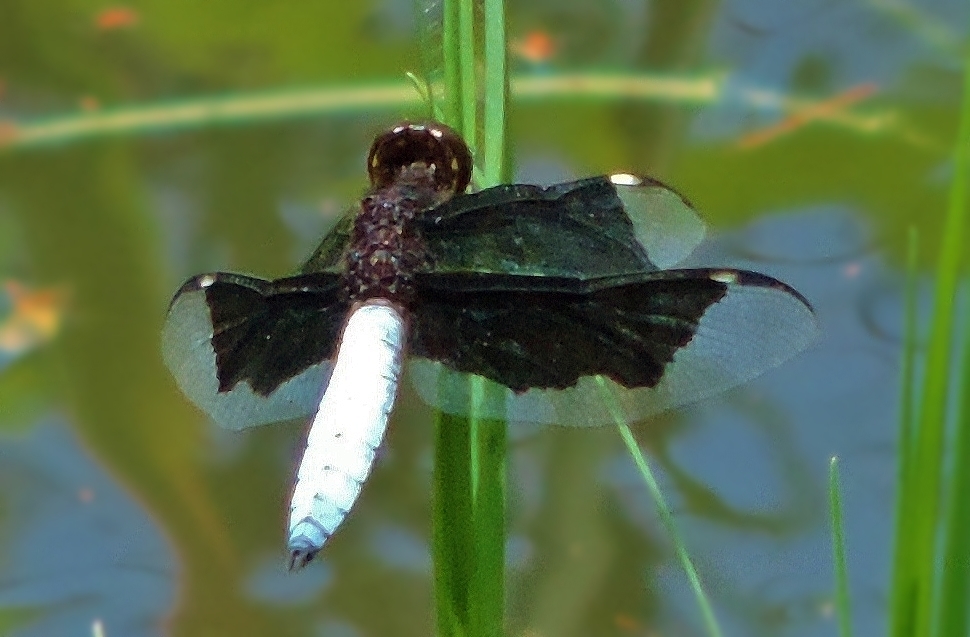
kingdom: Animalia
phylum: Arthropoda
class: Insecta
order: Odonata
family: Libellulidae
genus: Palpopleura
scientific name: Palpopleura lucia
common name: Lucia widow
